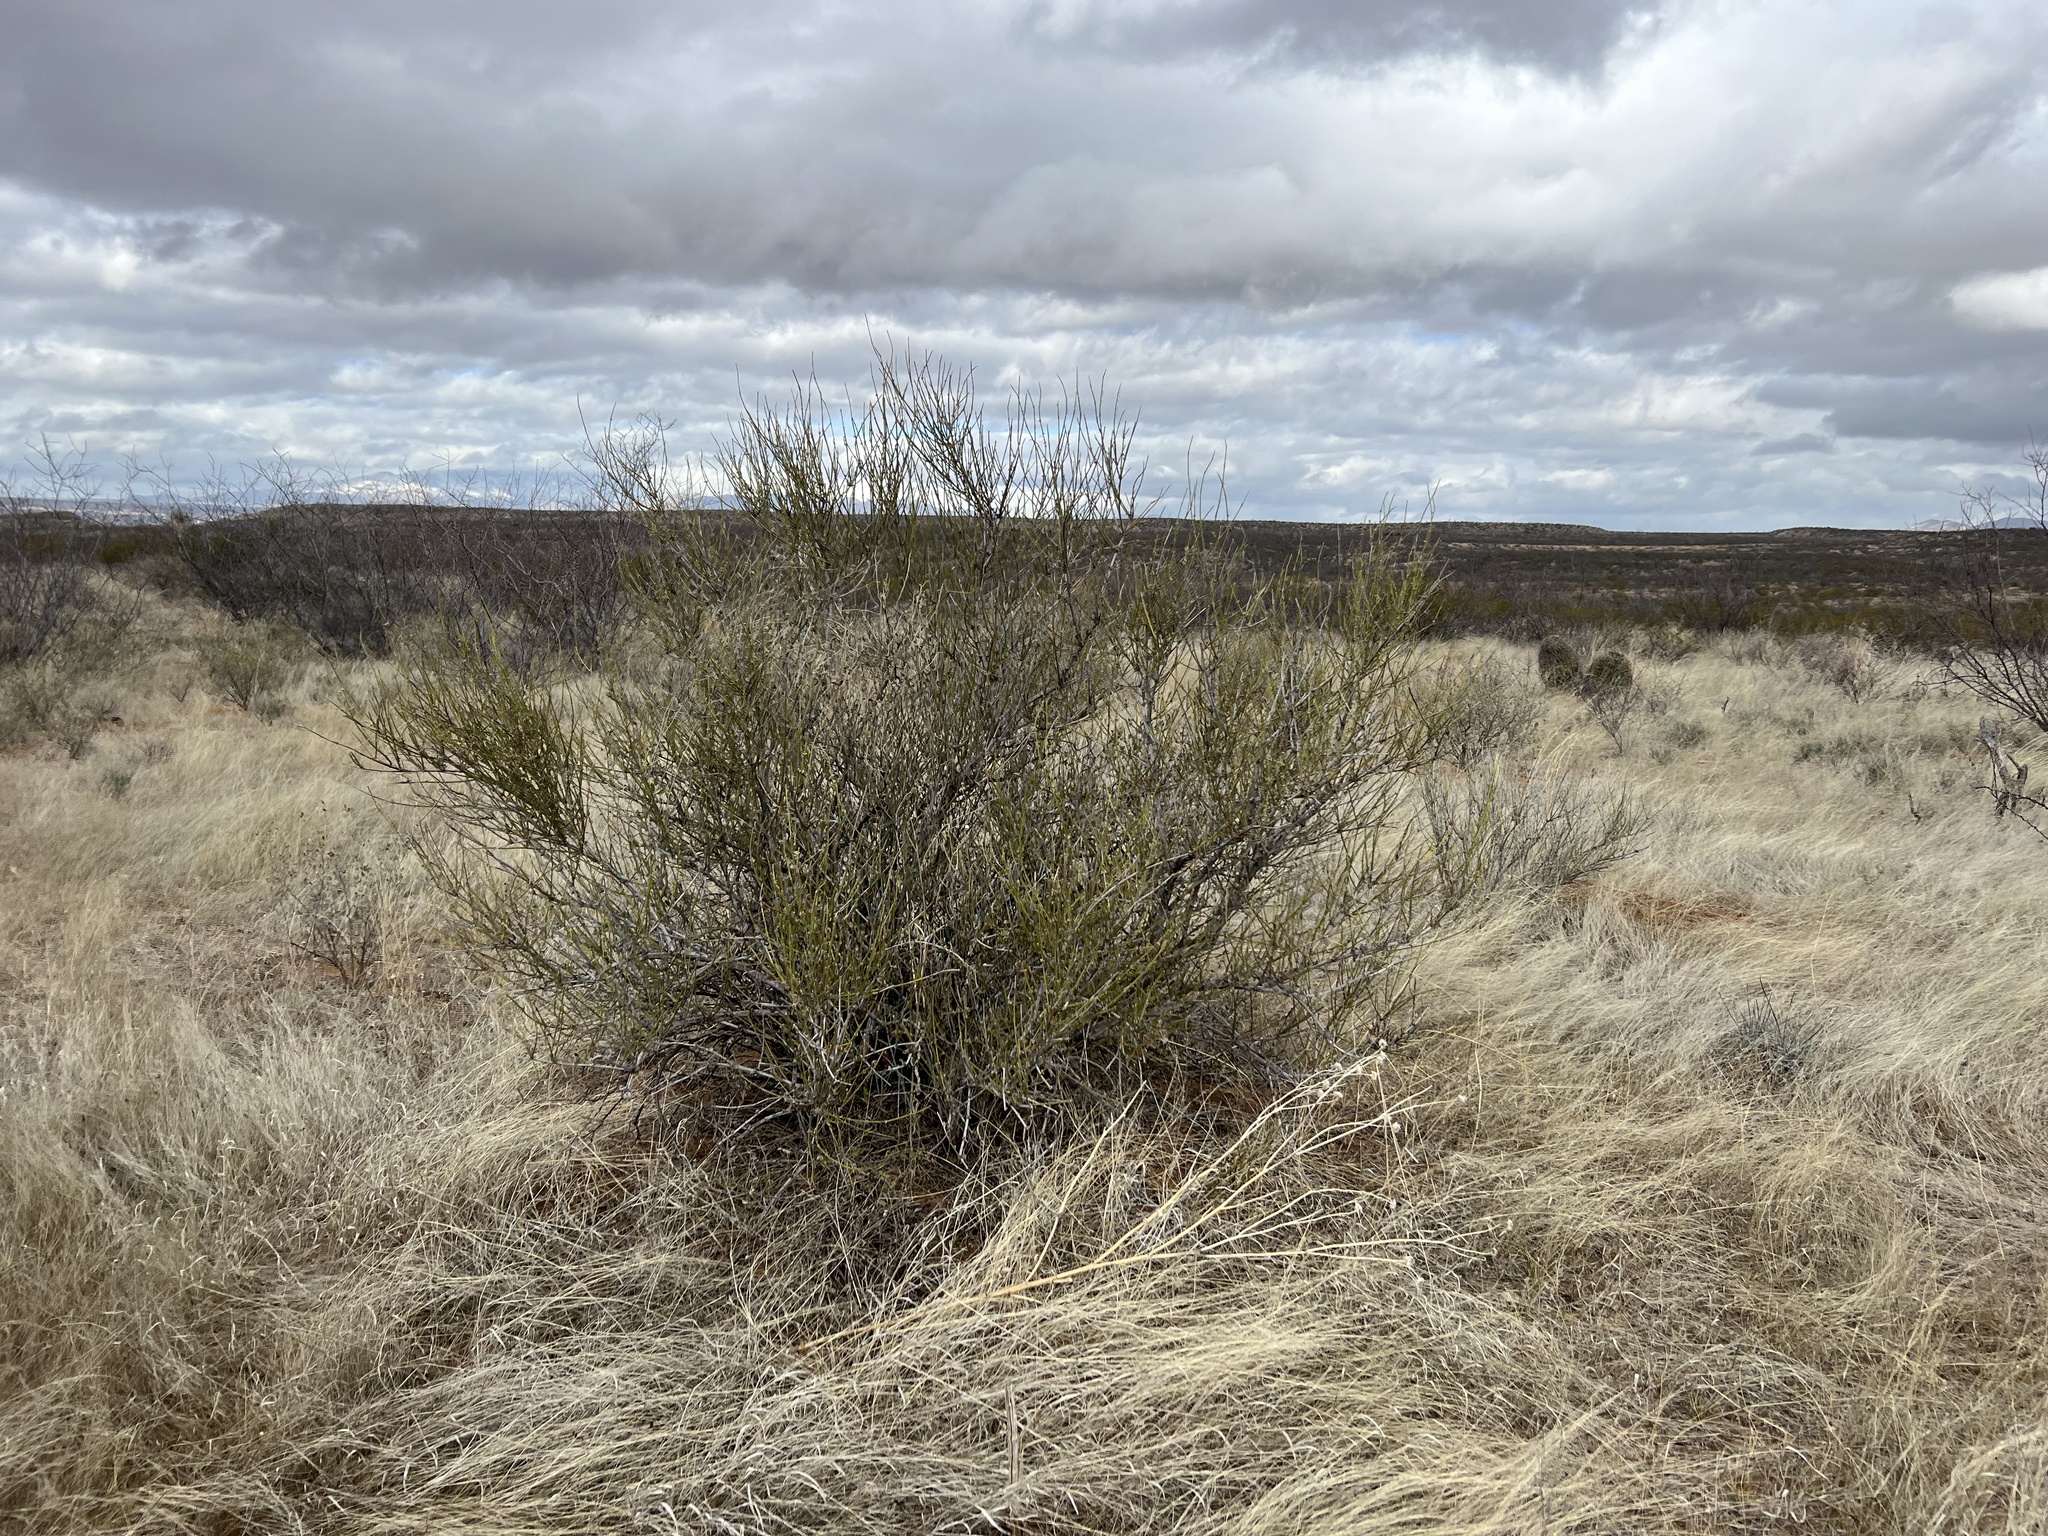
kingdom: Plantae
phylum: Tracheophyta
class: Gnetopsida
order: Ephedrales
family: Ephedraceae
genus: Ephedra
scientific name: Ephedra trifurca
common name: Mexican-tea
